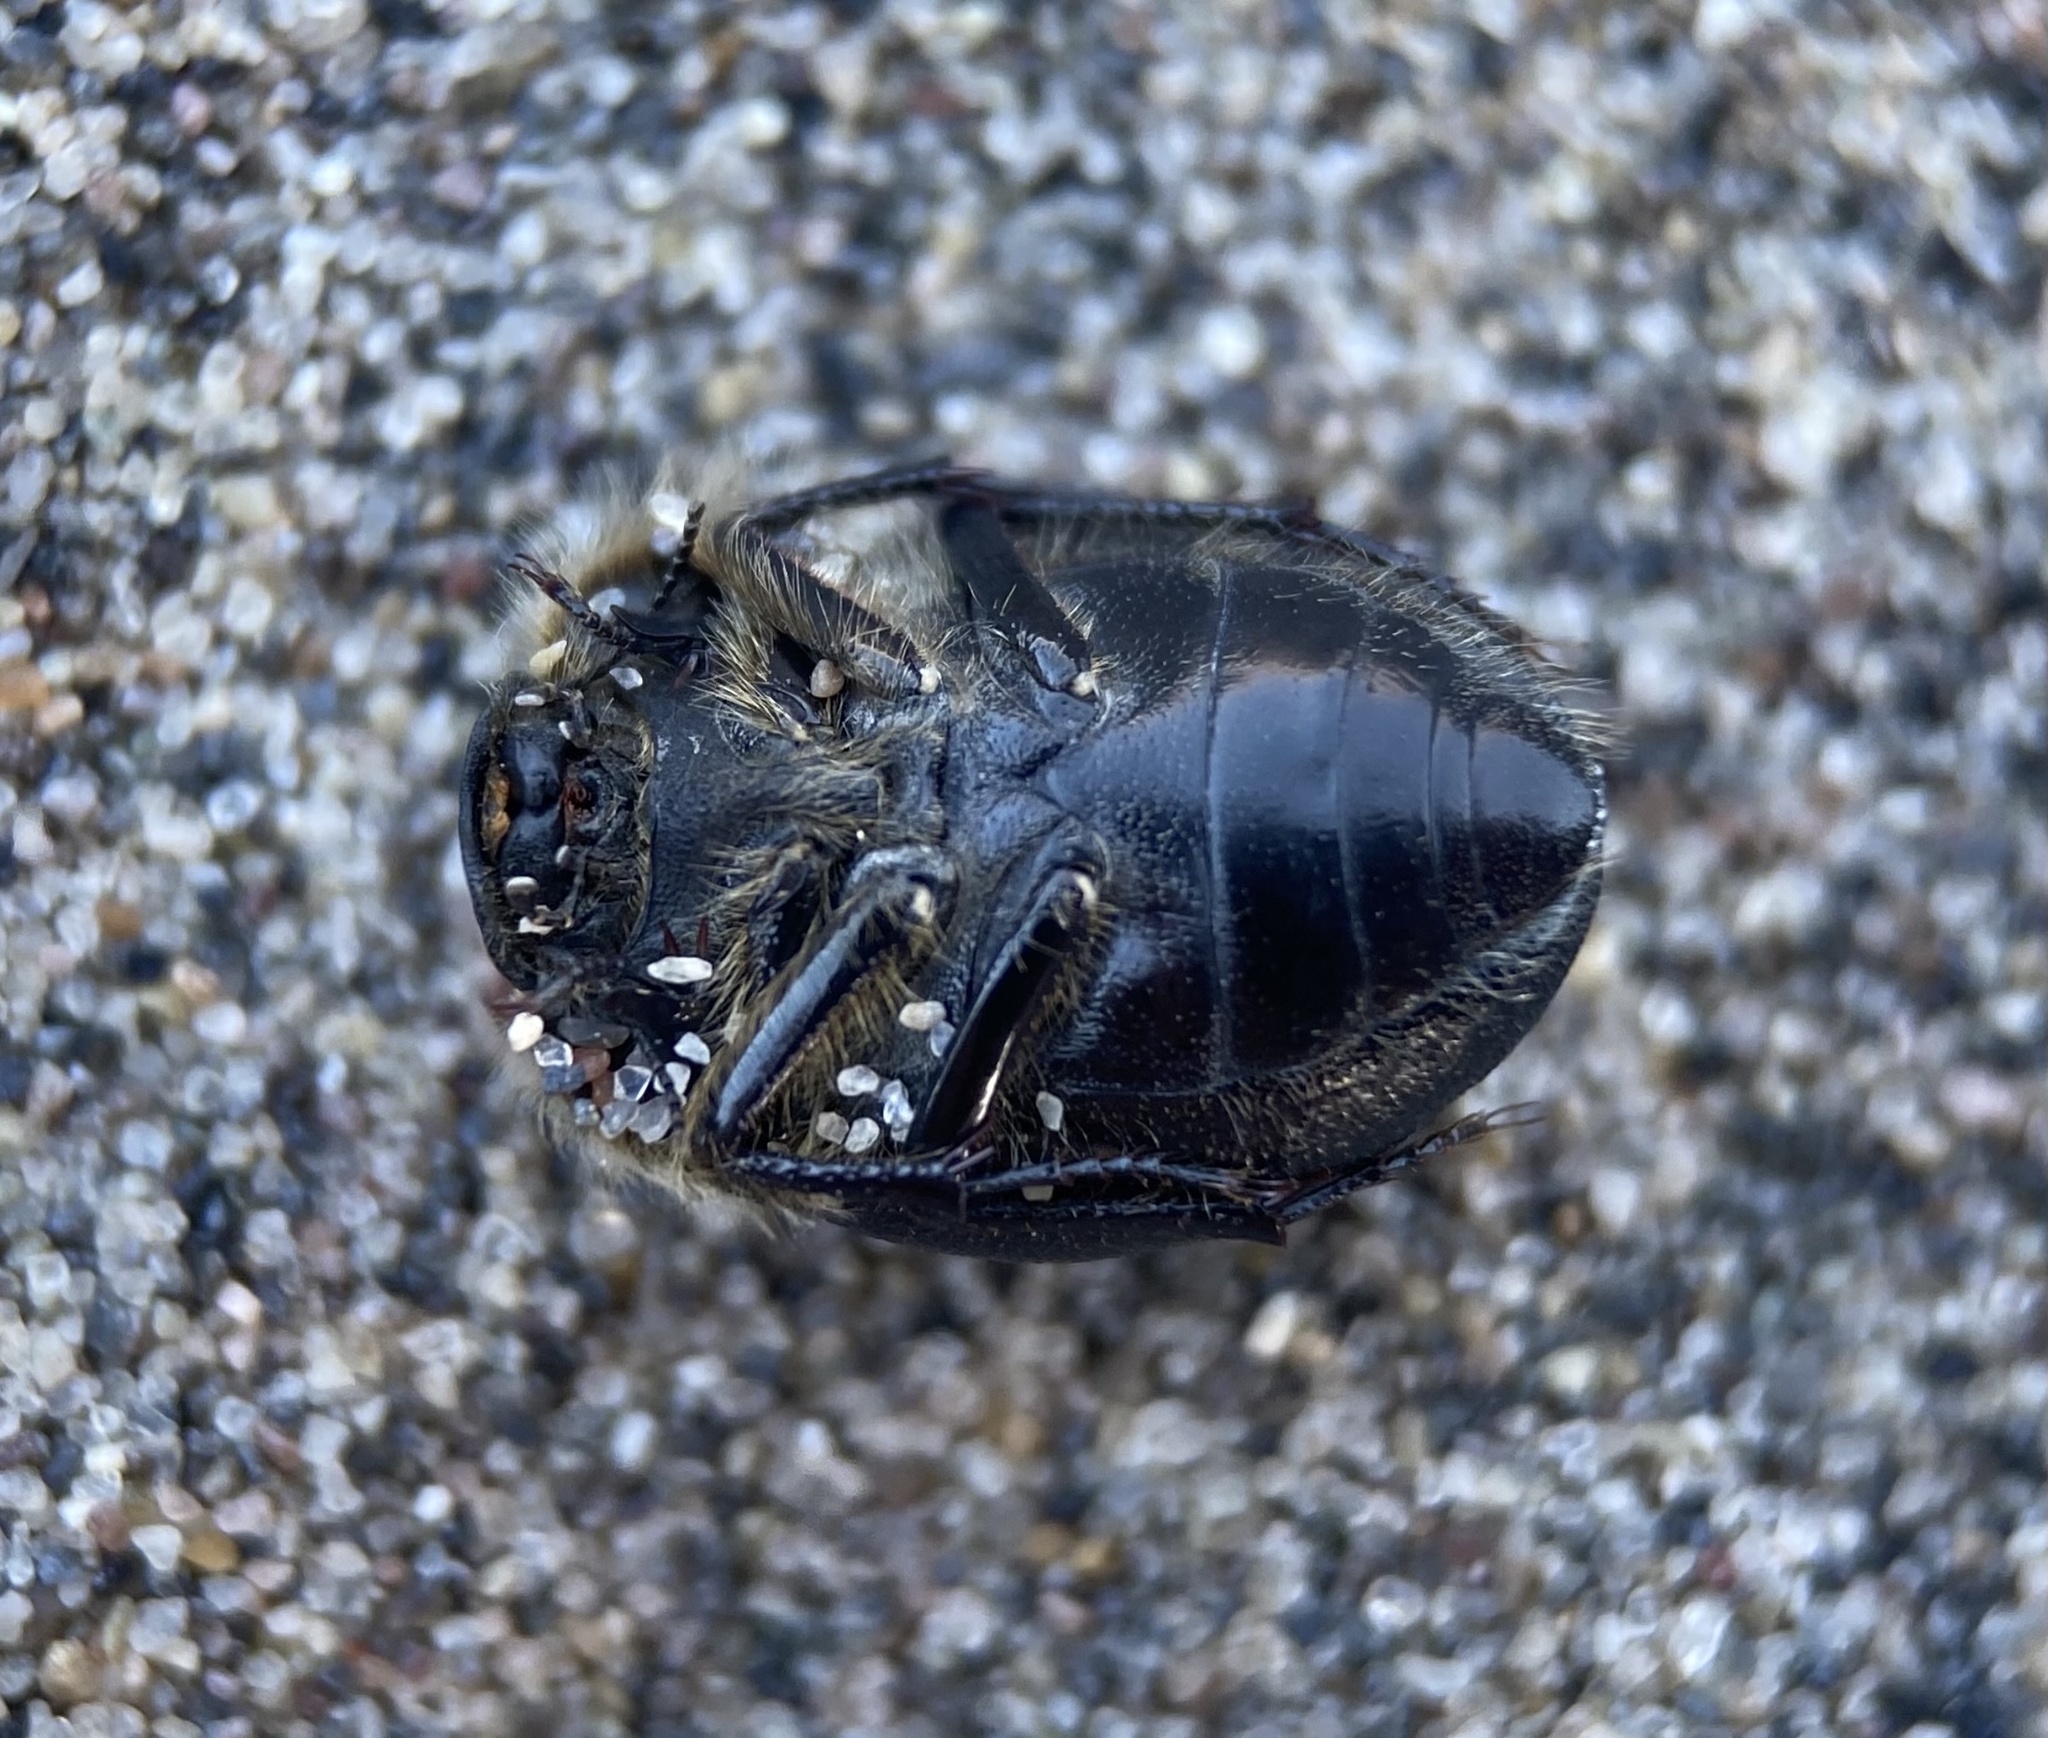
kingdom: Animalia
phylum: Arthropoda
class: Insecta
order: Coleoptera
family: Tenebrionidae
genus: Eusattus
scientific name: Eusattus muricatus
